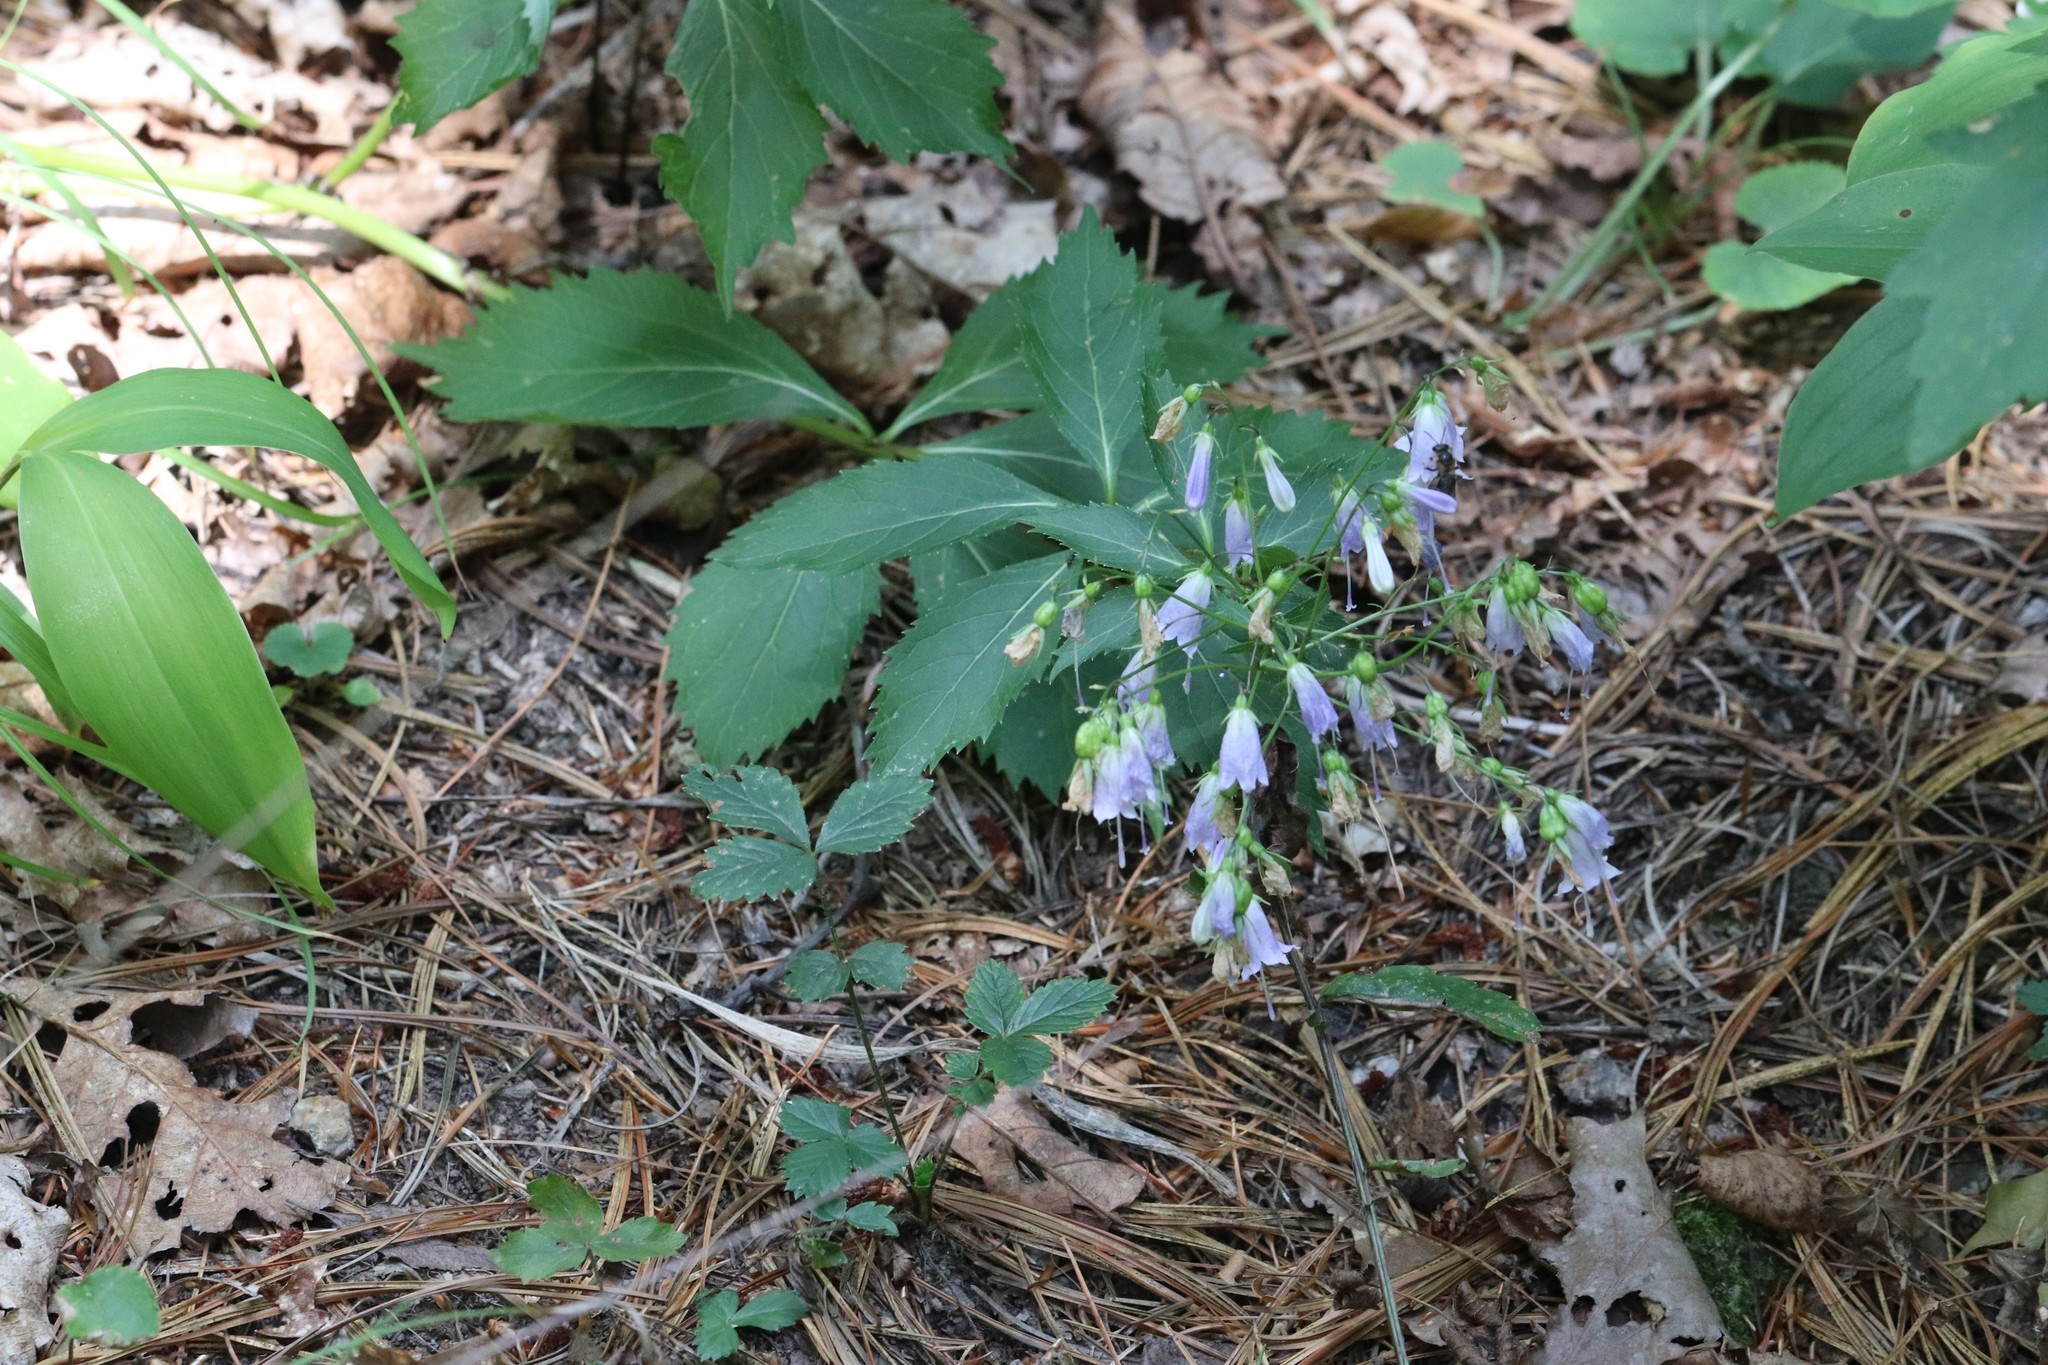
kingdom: Plantae
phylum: Tracheophyta
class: Magnoliopsida
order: Asterales
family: Campanulaceae
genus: Adenophora
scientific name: Adenophora pereskiifolia
